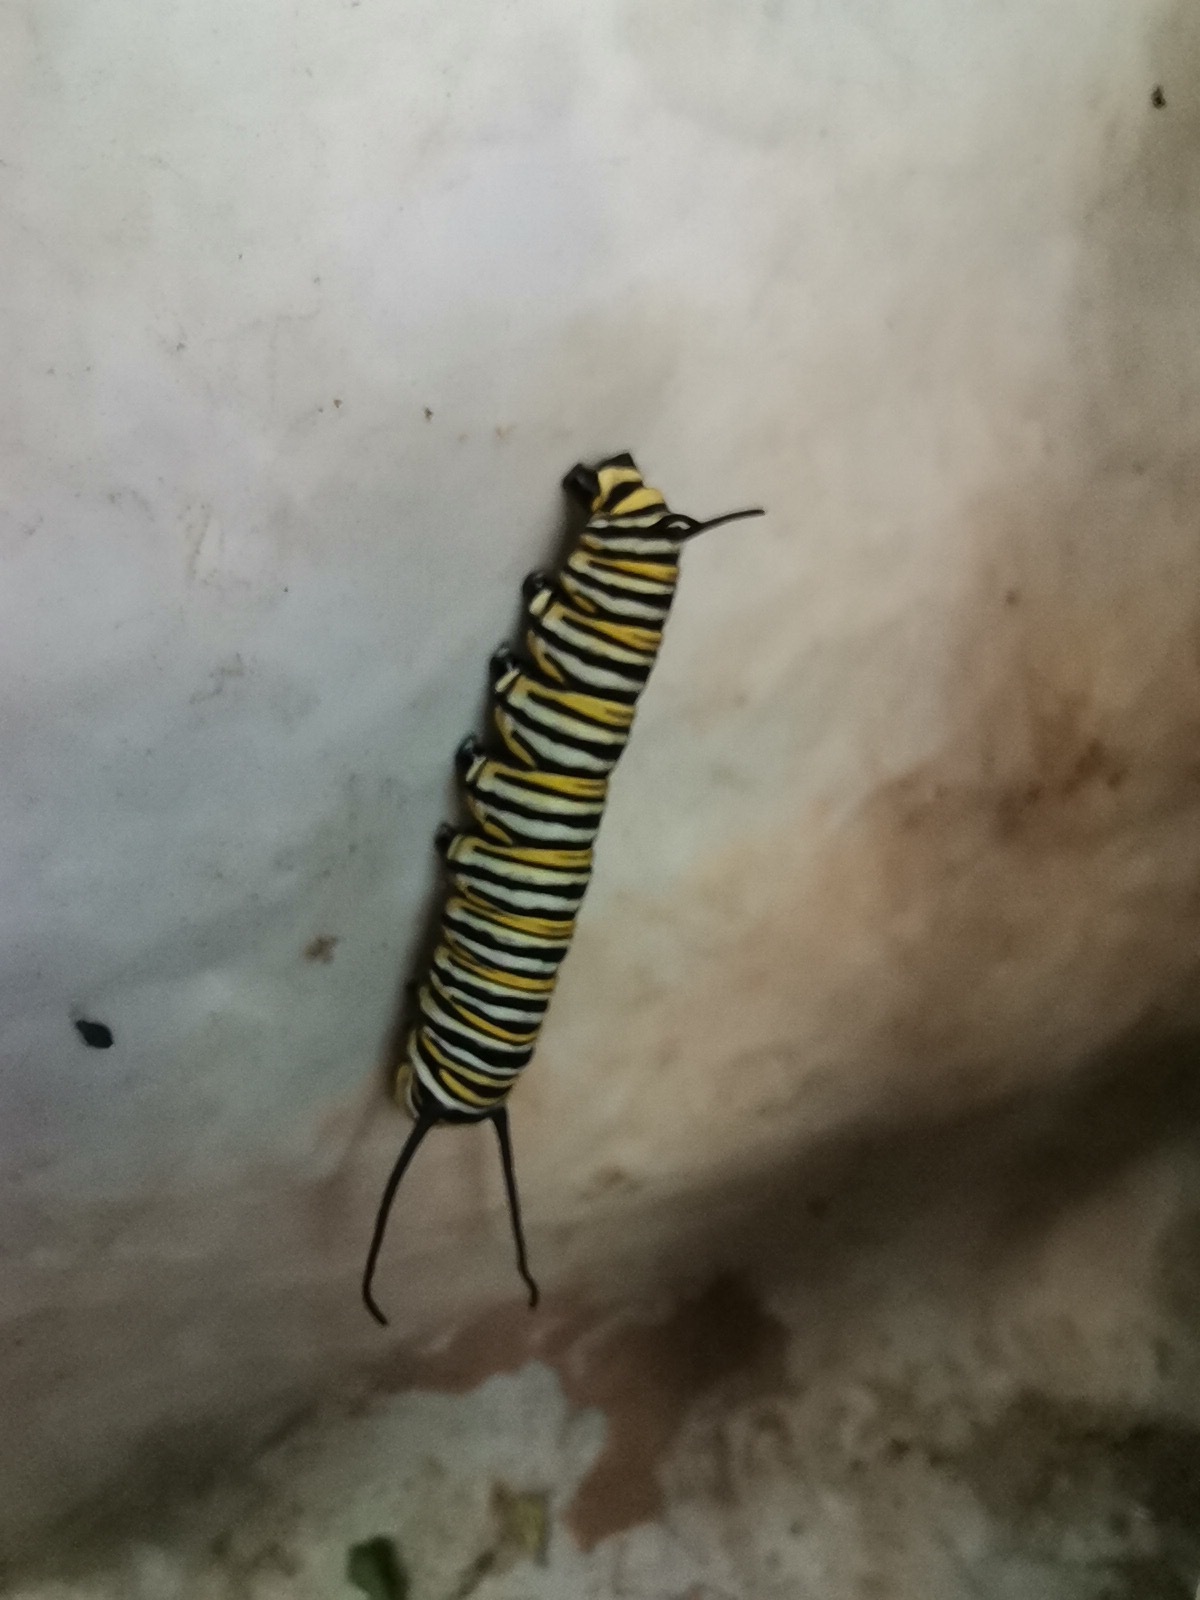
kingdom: Animalia
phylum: Arthropoda
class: Insecta
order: Lepidoptera
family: Nymphalidae
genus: Danaus
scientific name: Danaus plexippus
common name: Monarch
